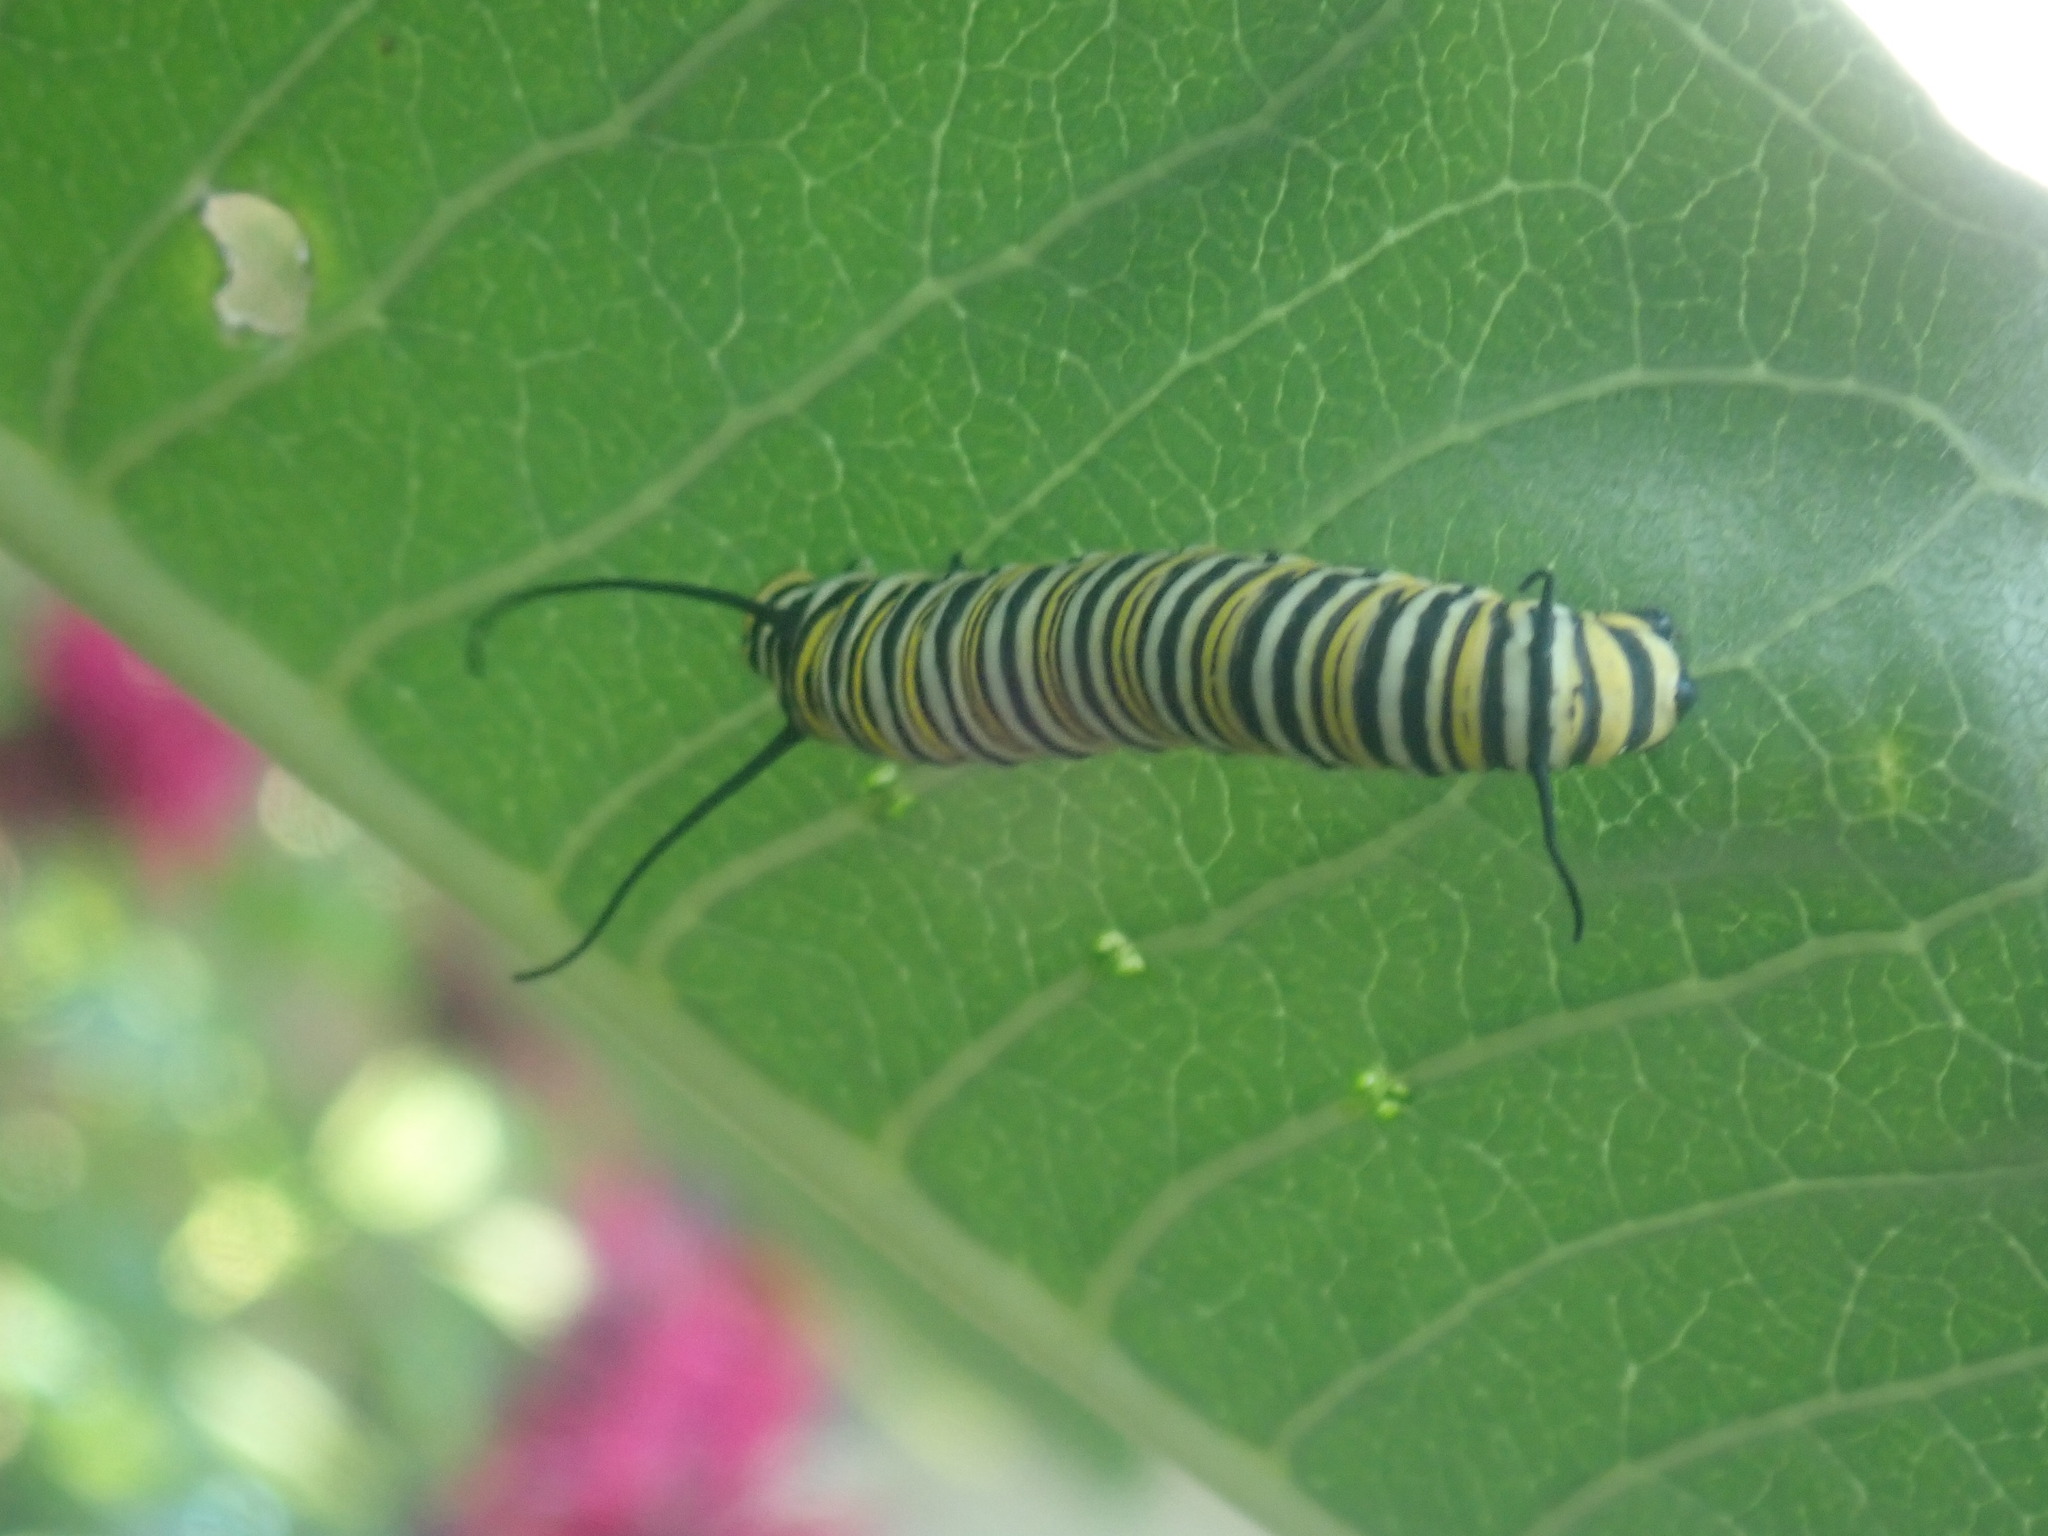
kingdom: Animalia
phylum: Arthropoda
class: Insecta
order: Lepidoptera
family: Nymphalidae
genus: Danaus
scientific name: Danaus plexippus
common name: Monarch
